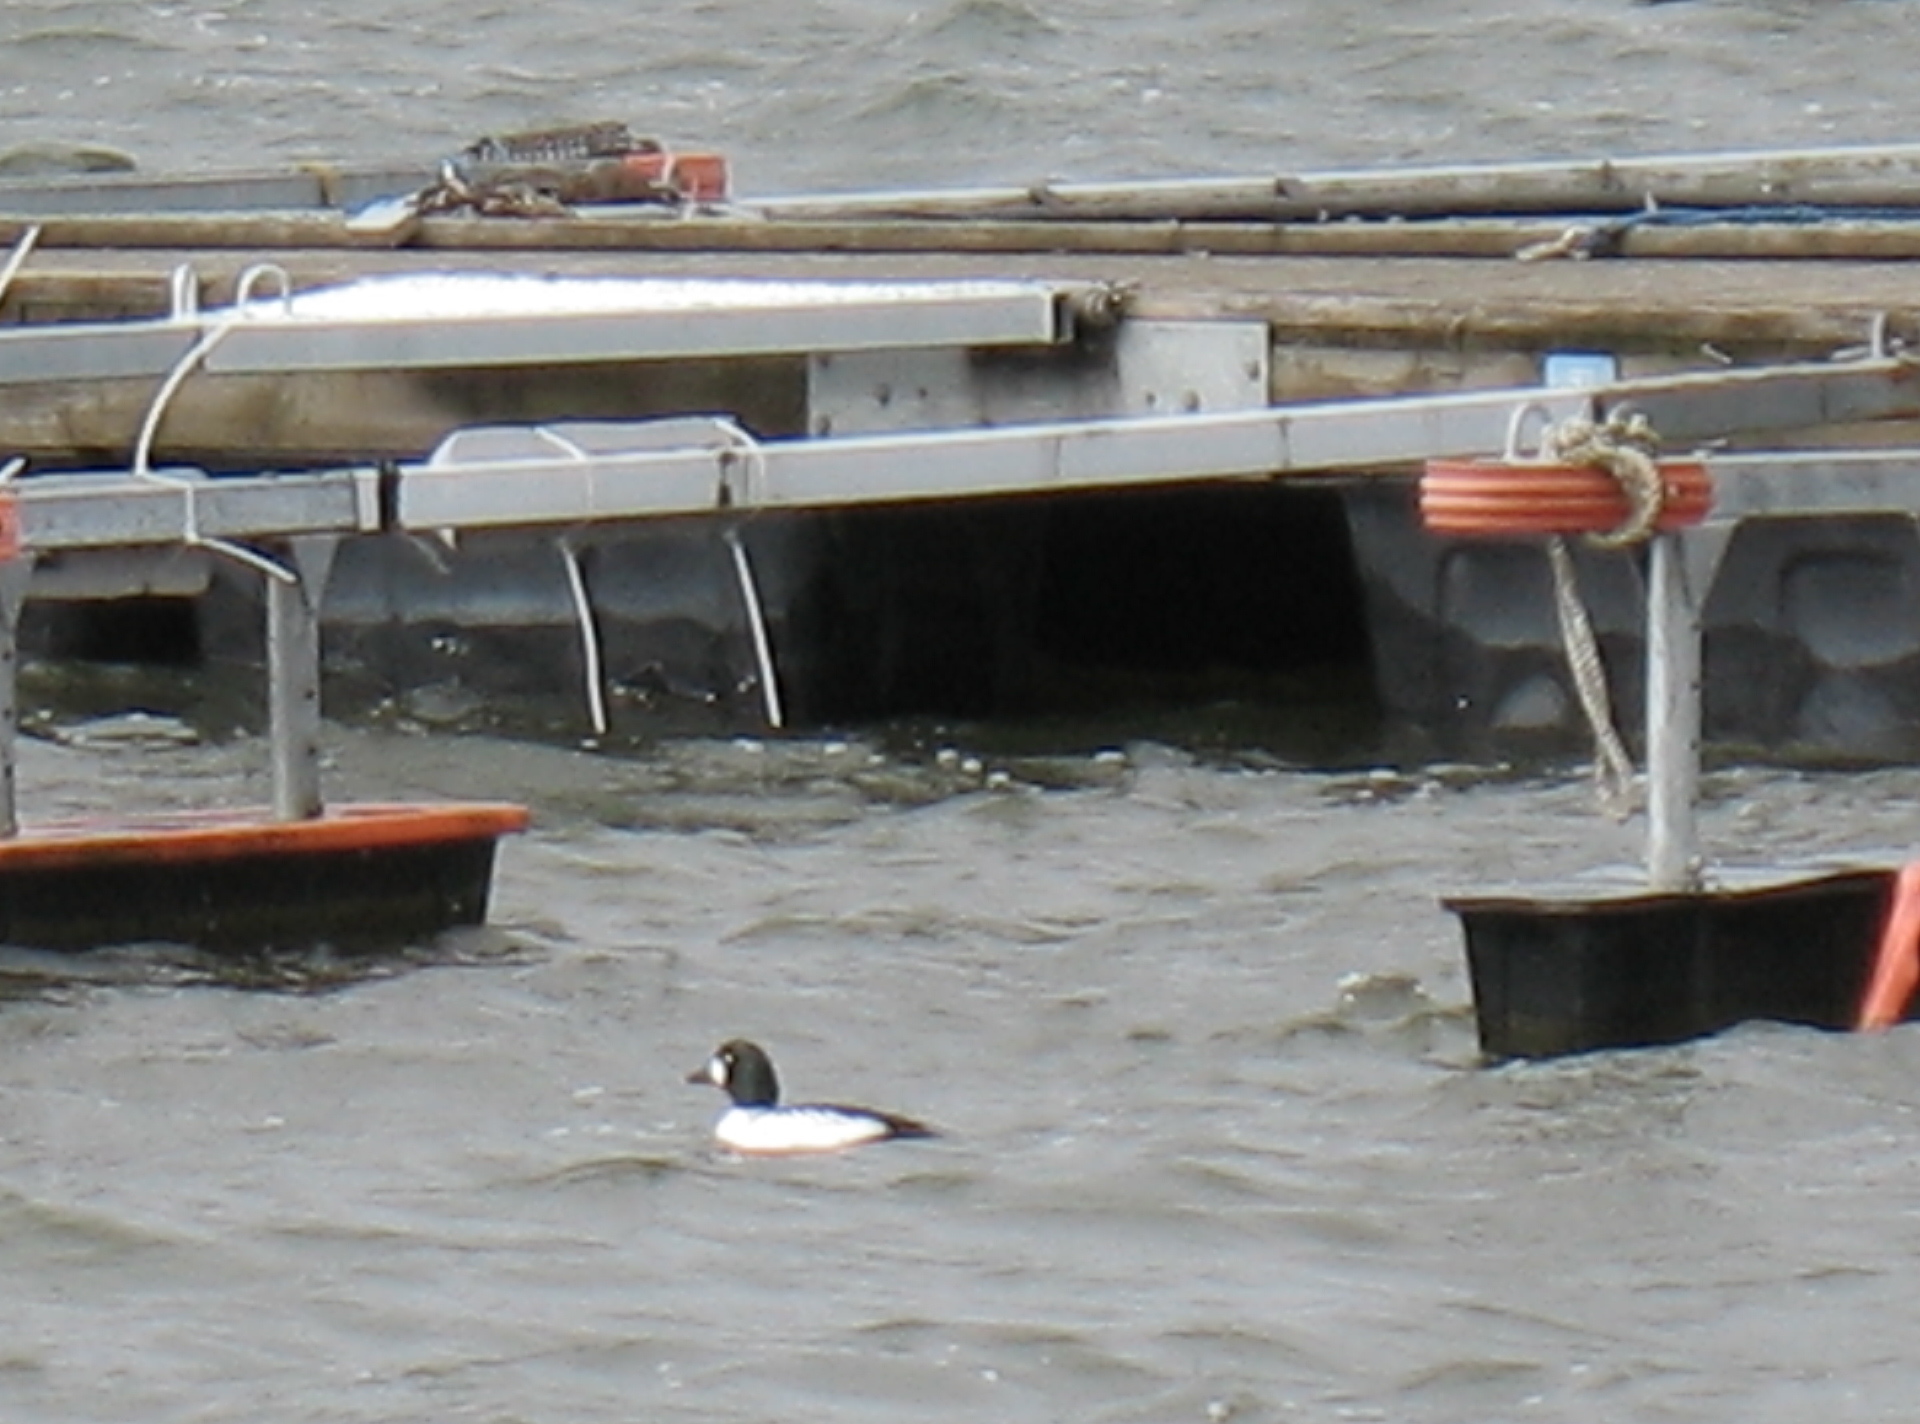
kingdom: Animalia
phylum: Chordata
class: Aves
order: Anseriformes
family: Anatidae
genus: Bucephala
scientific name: Bucephala clangula
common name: Common goldeneye
